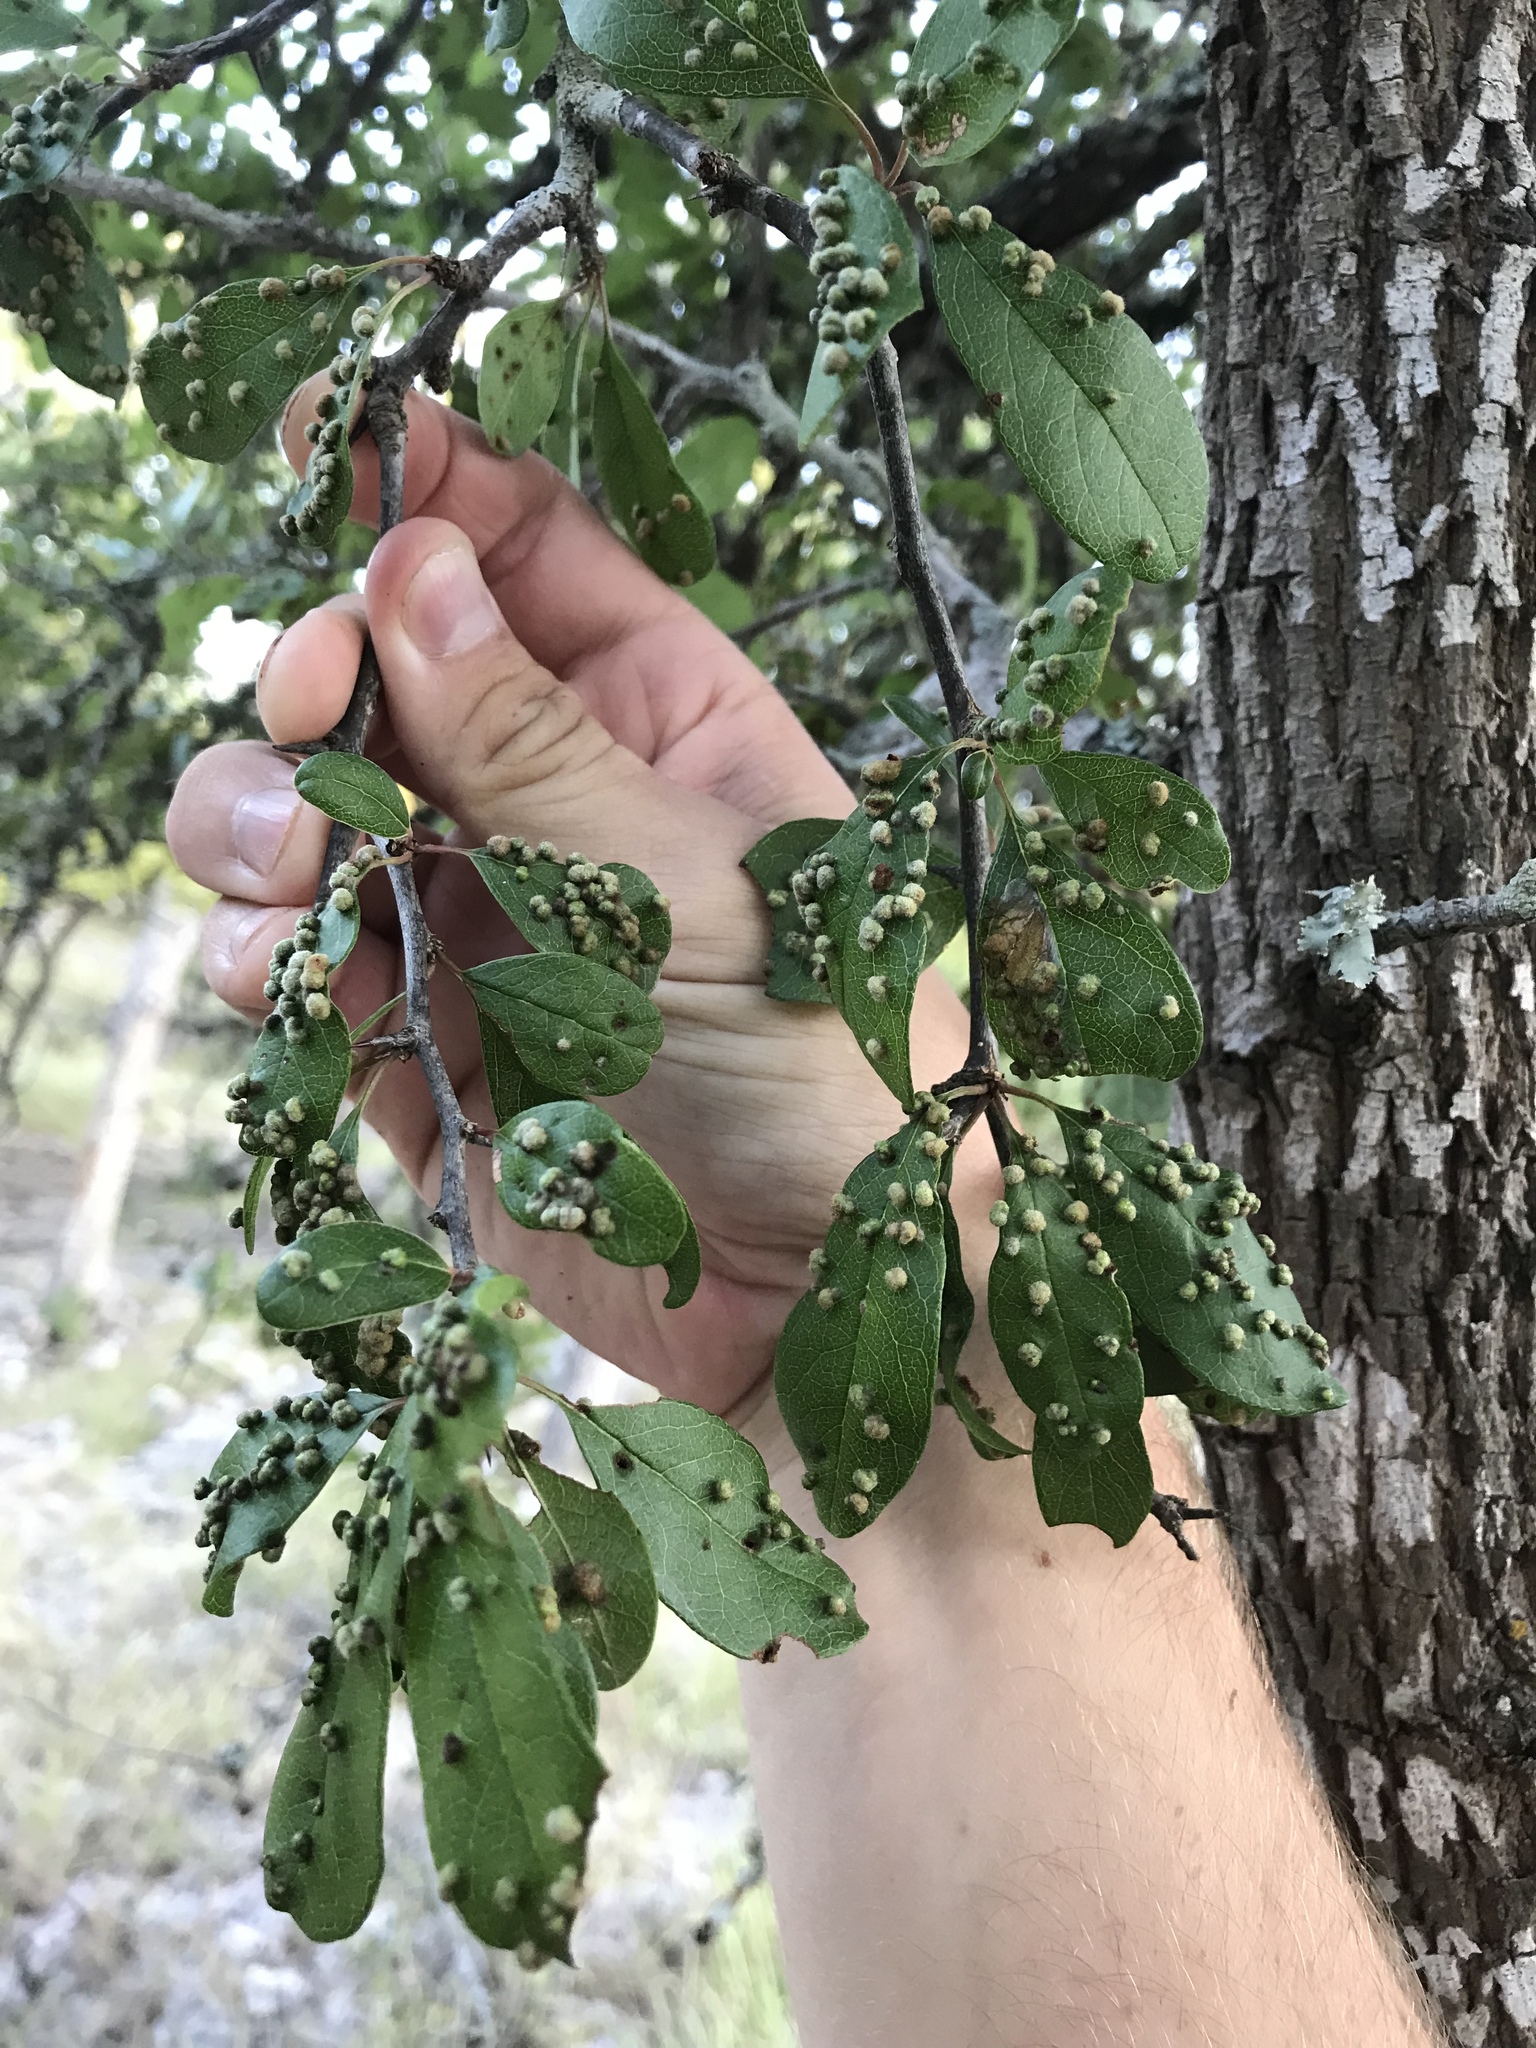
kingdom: Plantae
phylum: Tracheophyta
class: Magnoliopsida
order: Ericales
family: Sapotaceae
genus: Sideroxylon
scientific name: Sideroxylon lanuginosum
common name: Chittamwood
